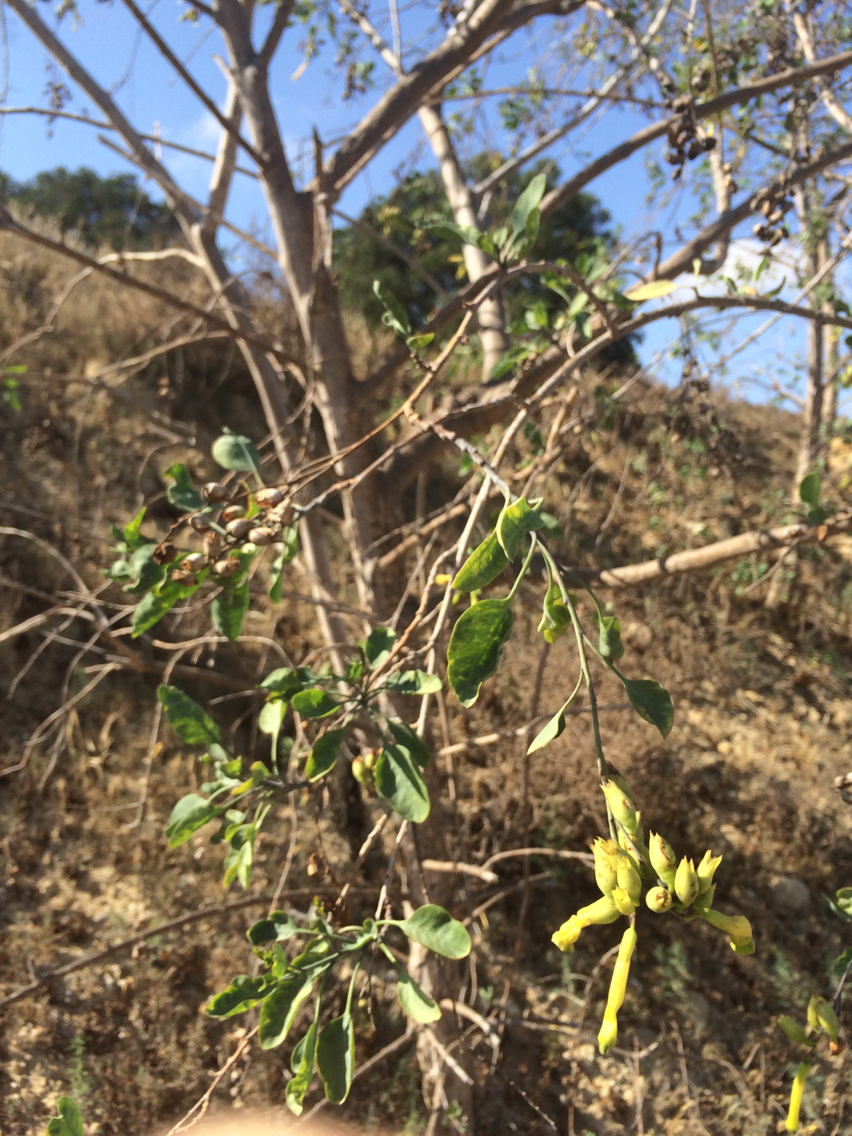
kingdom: Plantae
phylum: Tracheophyta
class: Magnoliopsida
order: Solanales
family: Solanaceae
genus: Nicotiana
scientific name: Nicotiana glauca
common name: Tree tobacco
